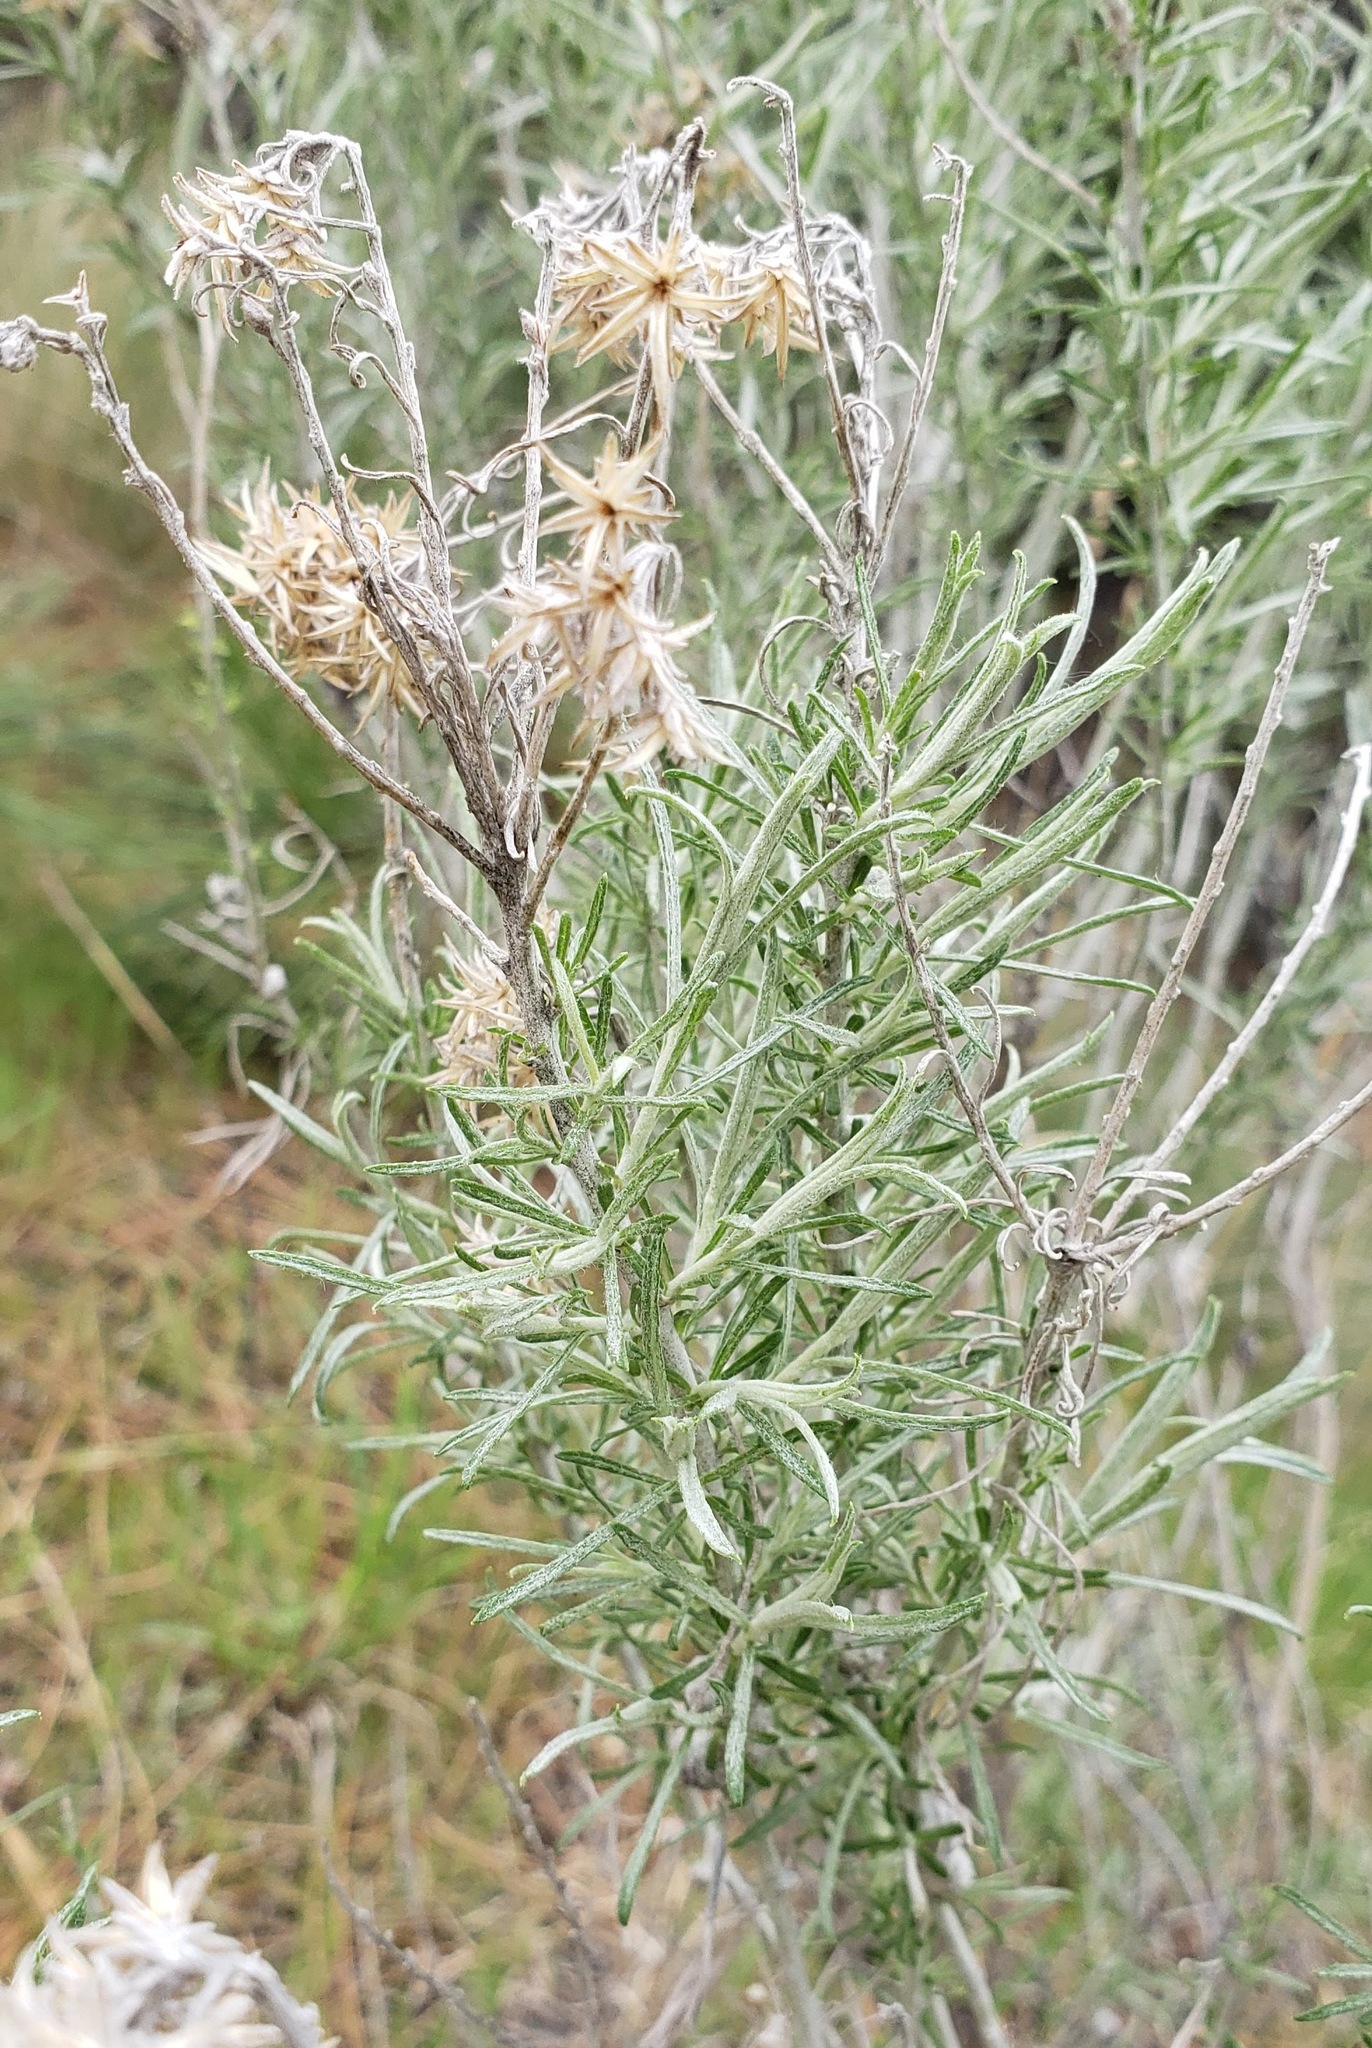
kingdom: Plantae
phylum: Tracheophyta
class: Magnoliopsida
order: Asterales
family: Asteraceae
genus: Ericameria
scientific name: Ericameria nauseosa
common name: Rubber rabbitbrush
